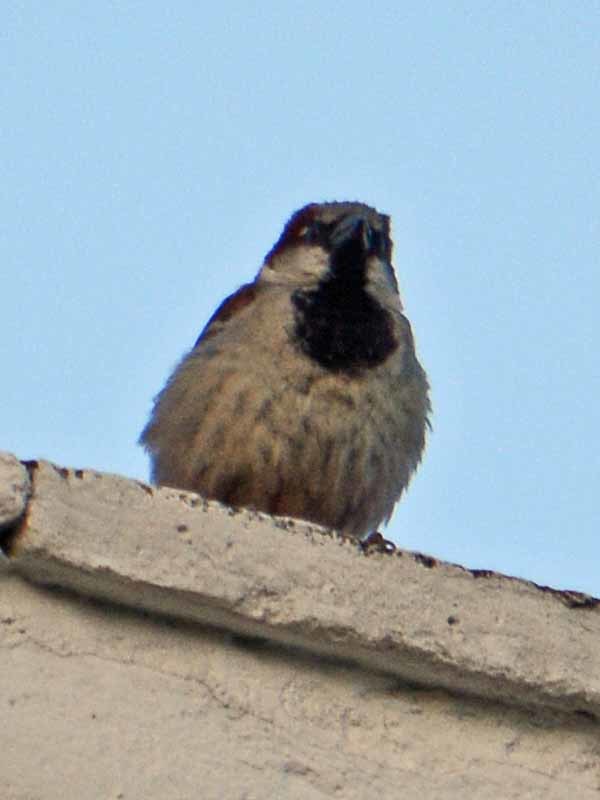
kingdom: Animalia
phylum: Chordata
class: Aves
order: Passeriformes
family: Passeridae
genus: Passer
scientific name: Passer domesticus
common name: House sparrow
